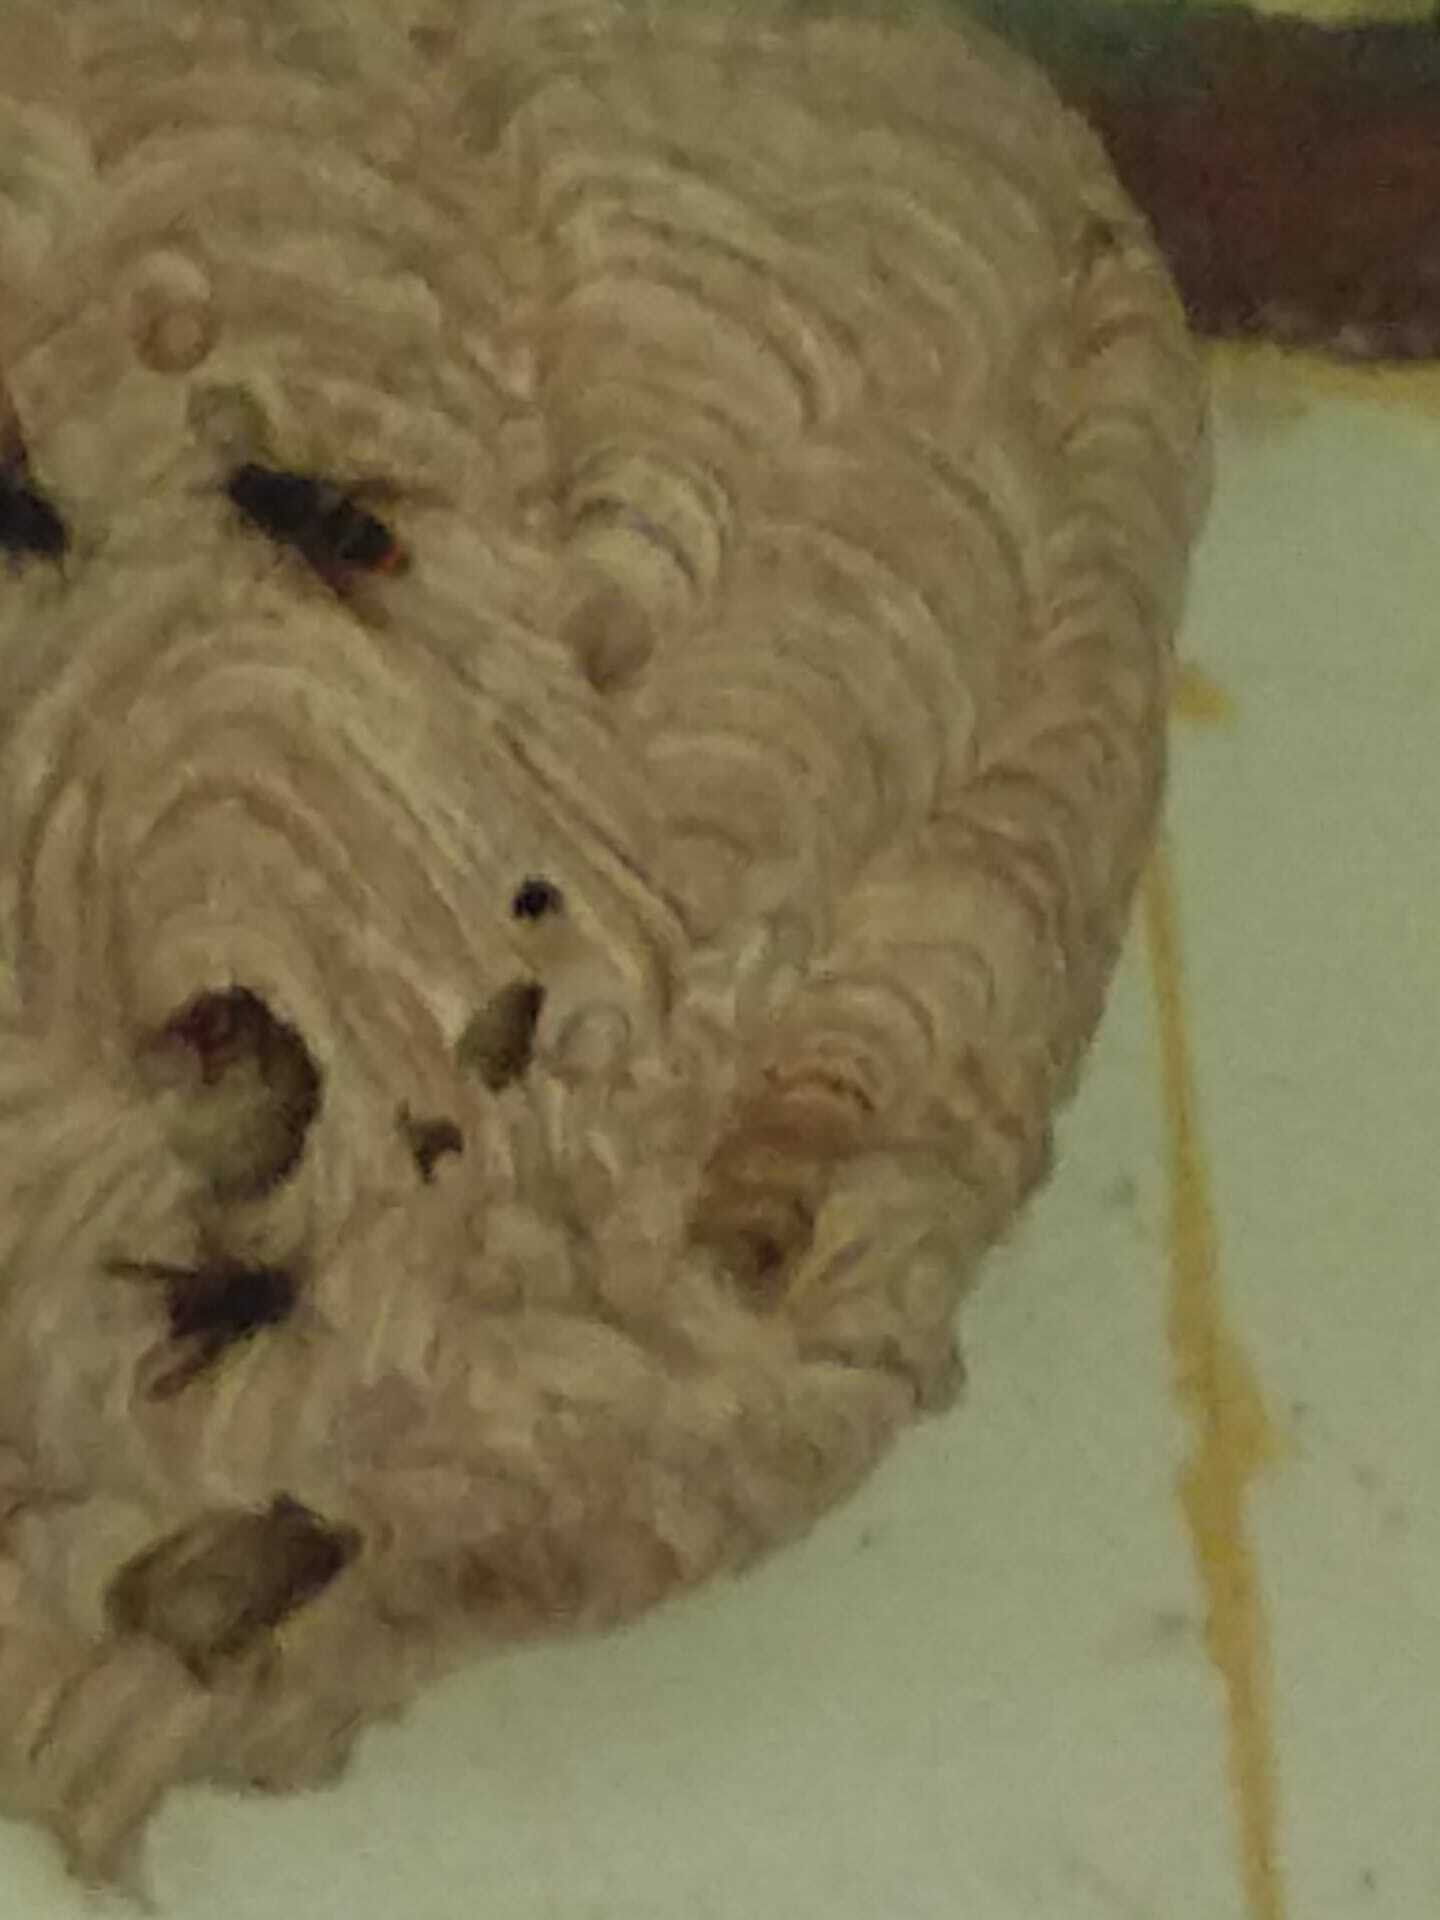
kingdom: Animalia
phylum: Arthropoda
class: Insecta
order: Hymenoptera
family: Vespidae
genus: Vespa
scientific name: Vespa velutina
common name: Asian hornet
